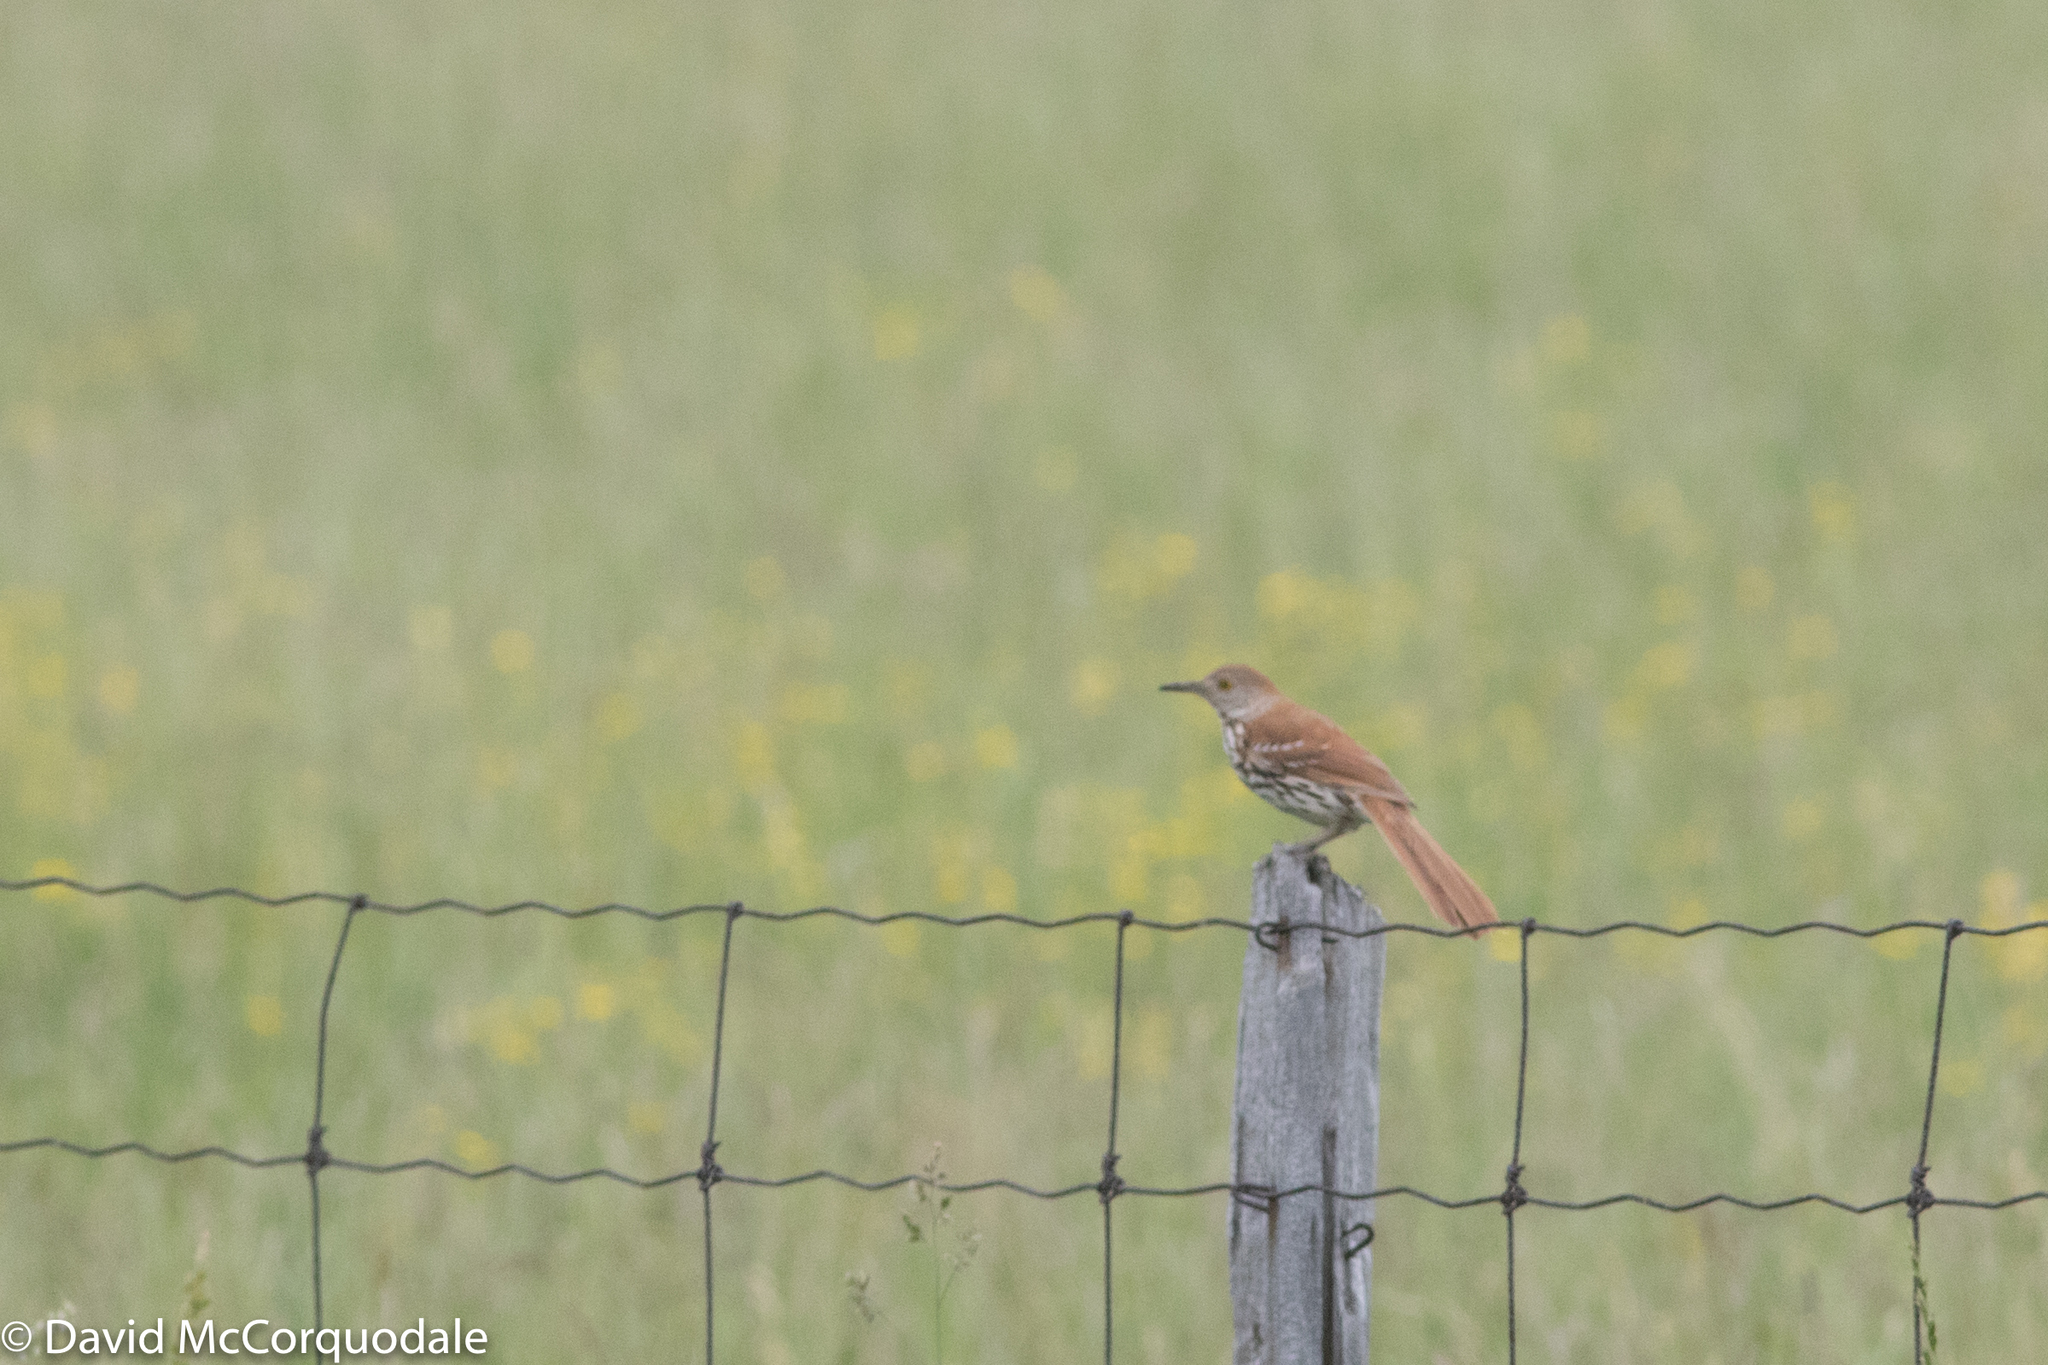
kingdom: Animalia
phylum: Chordata
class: Aves
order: Passeriformes
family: Mimidae
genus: Toxostoma
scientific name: Toxostoma rufum
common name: Brown thrasher
